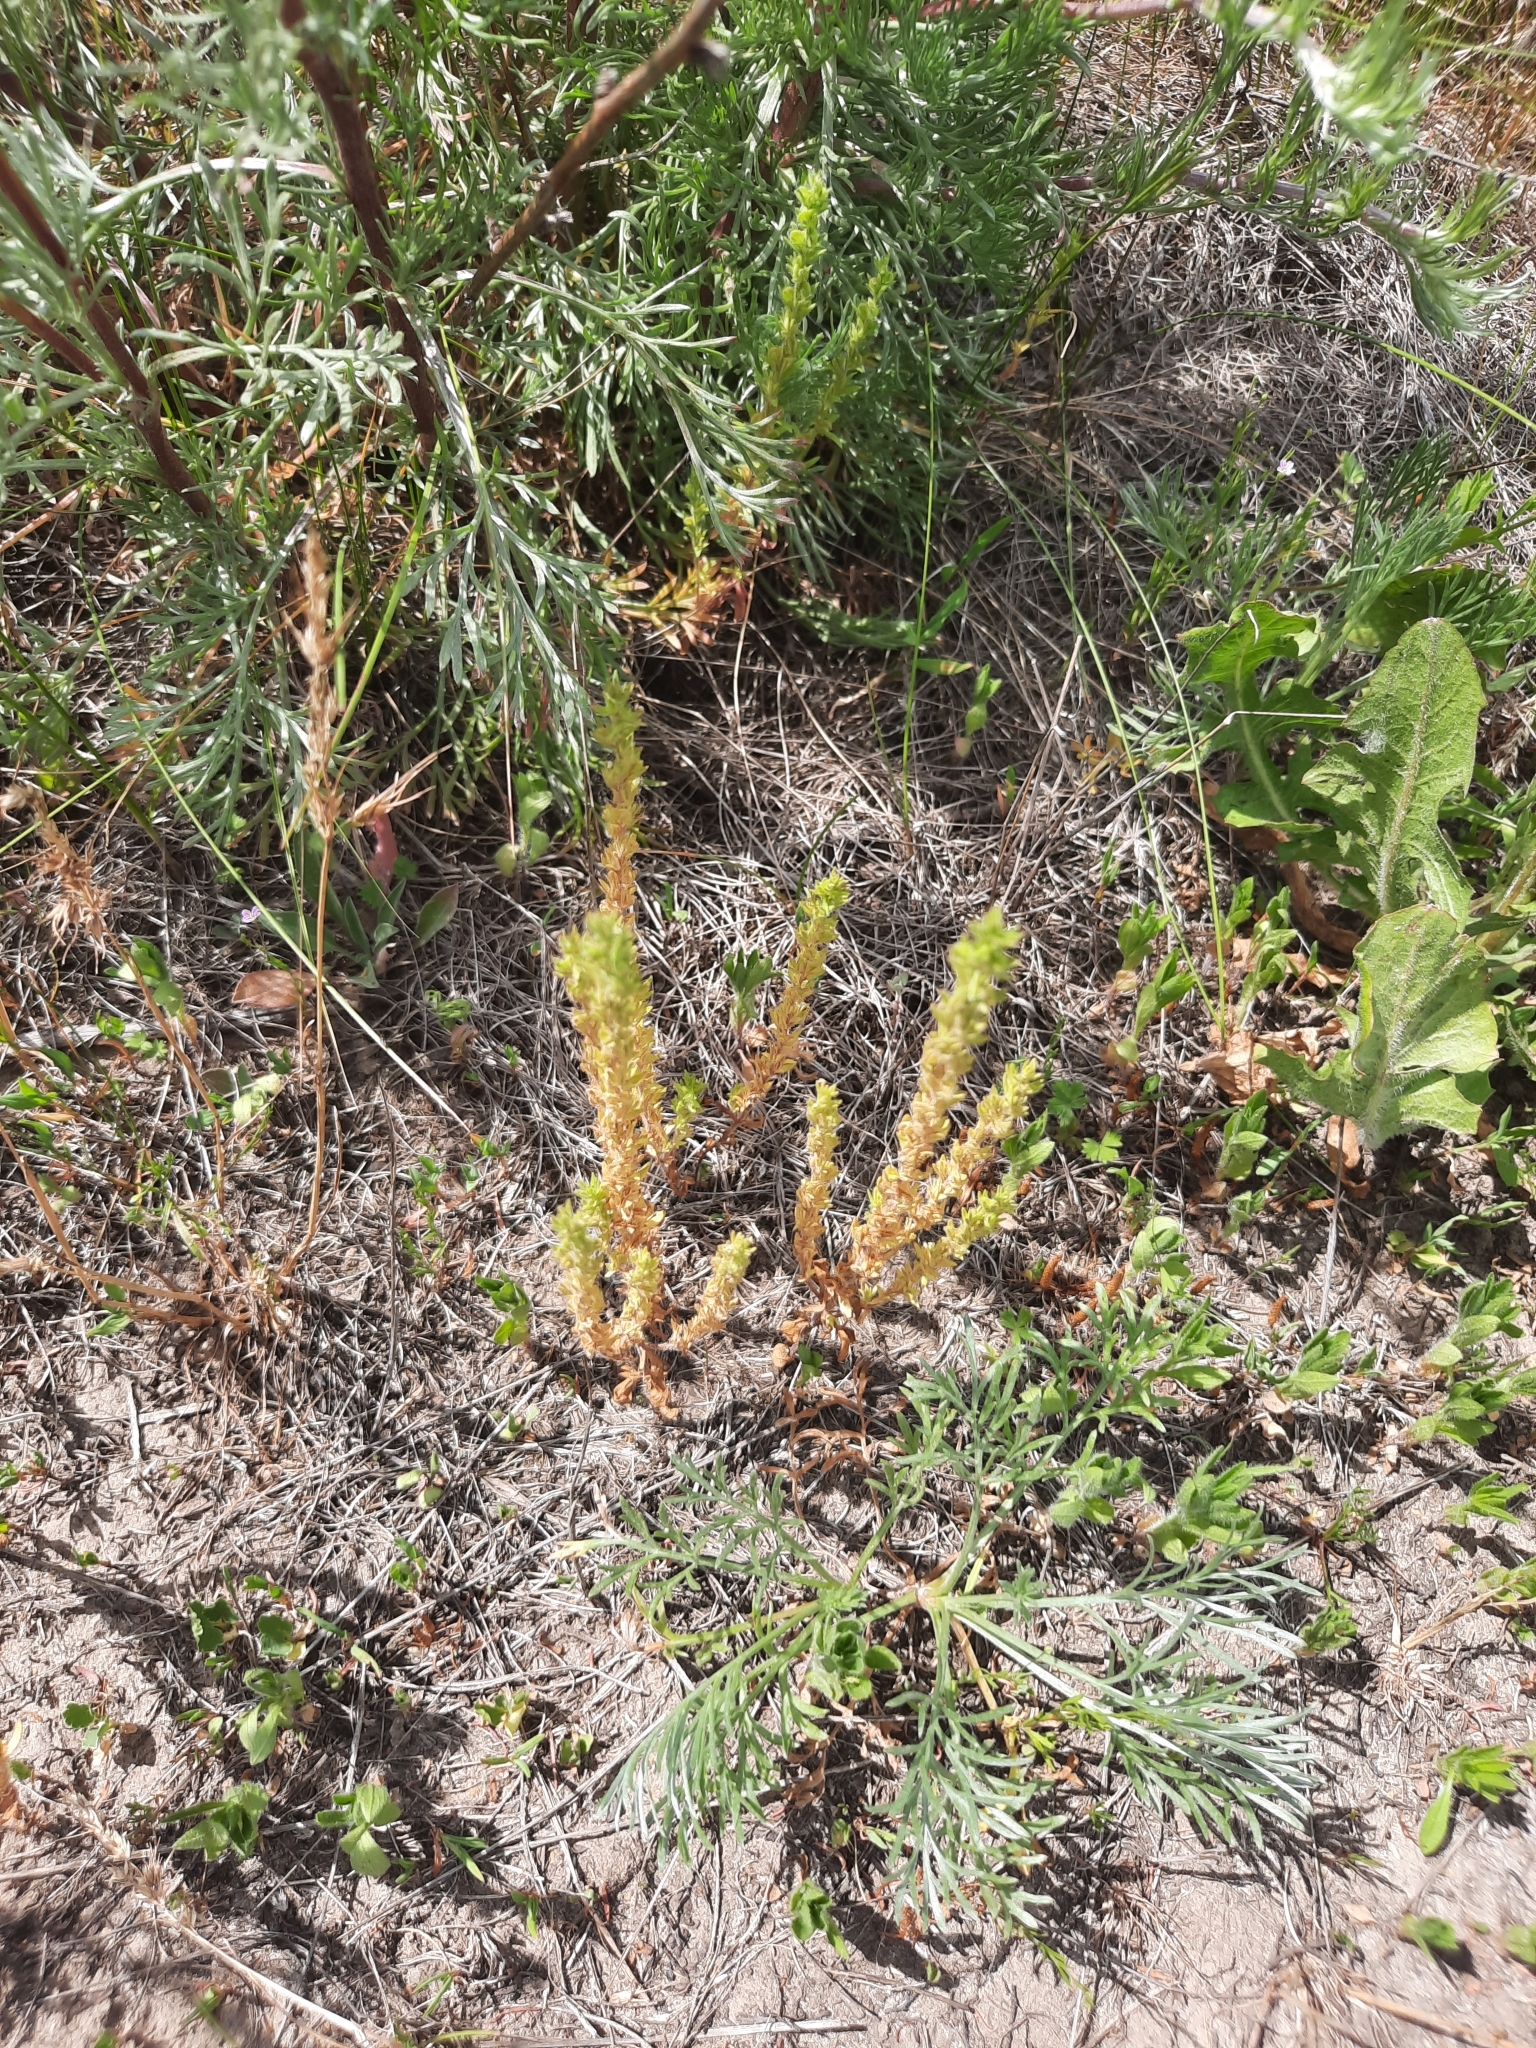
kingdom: Plantae
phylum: Tracheophyta
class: Magnoliopsida
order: Lamiales
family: Plantaginaceae
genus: Veronica
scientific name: Veronica verna
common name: Spring speedwell
